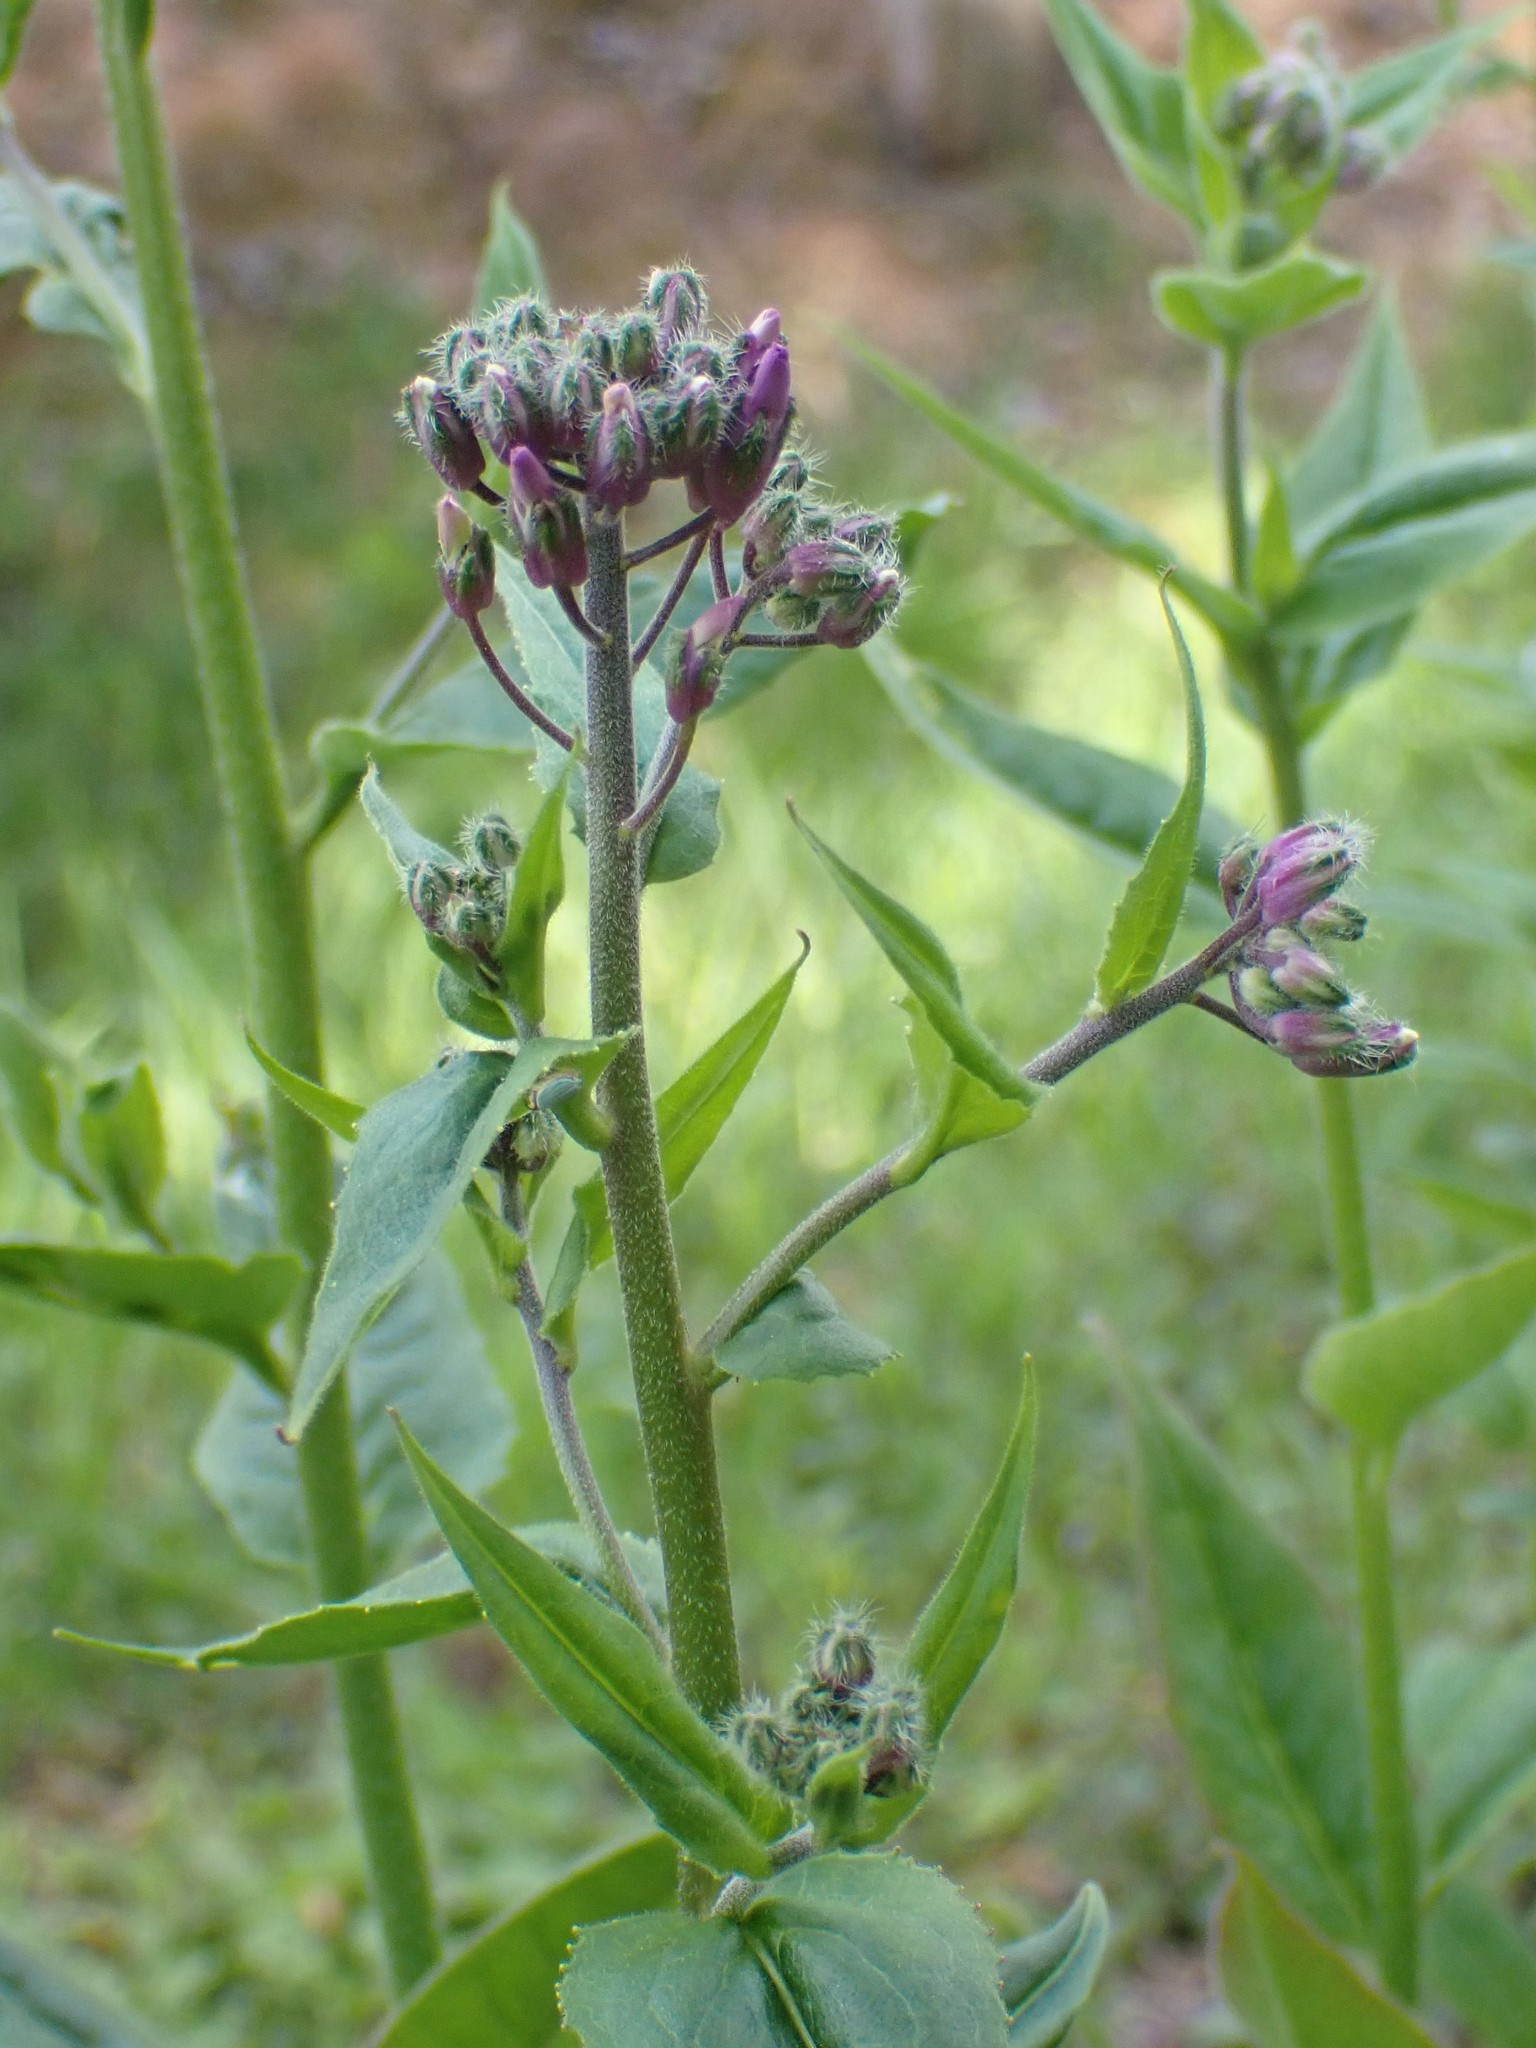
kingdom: Plantae
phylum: Tracheophyta
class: Magnoliopsida
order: Brassicales
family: Brassicaceae
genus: Hesperis
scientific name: Hesperis matronalis
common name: Dame's-violet
